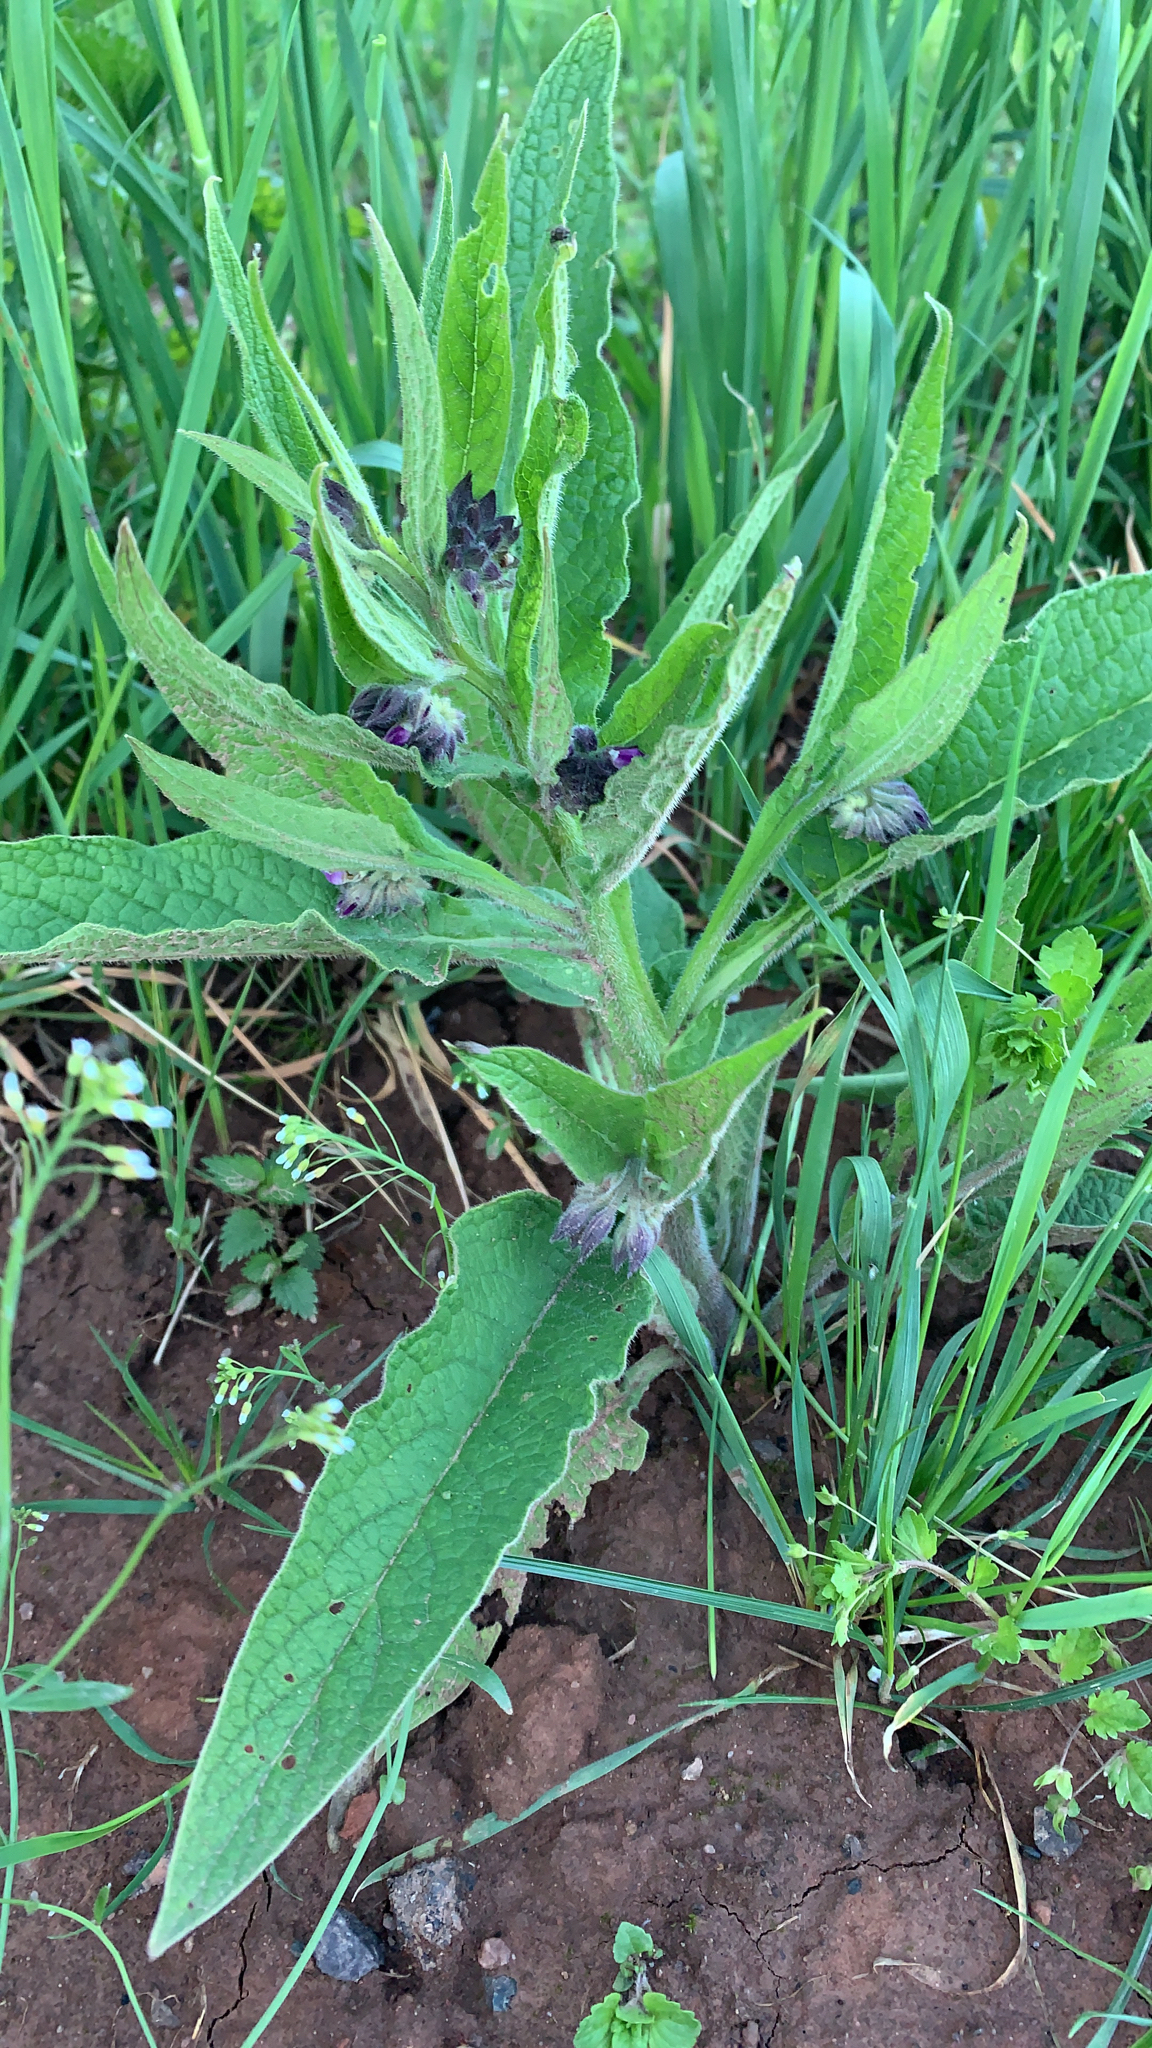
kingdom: Plantae
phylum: Tracheophyta
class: Magnoliopsida
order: Boraginales
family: Boraginaceae
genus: Symphytum
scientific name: Symphytum officinale
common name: Common comfrey
